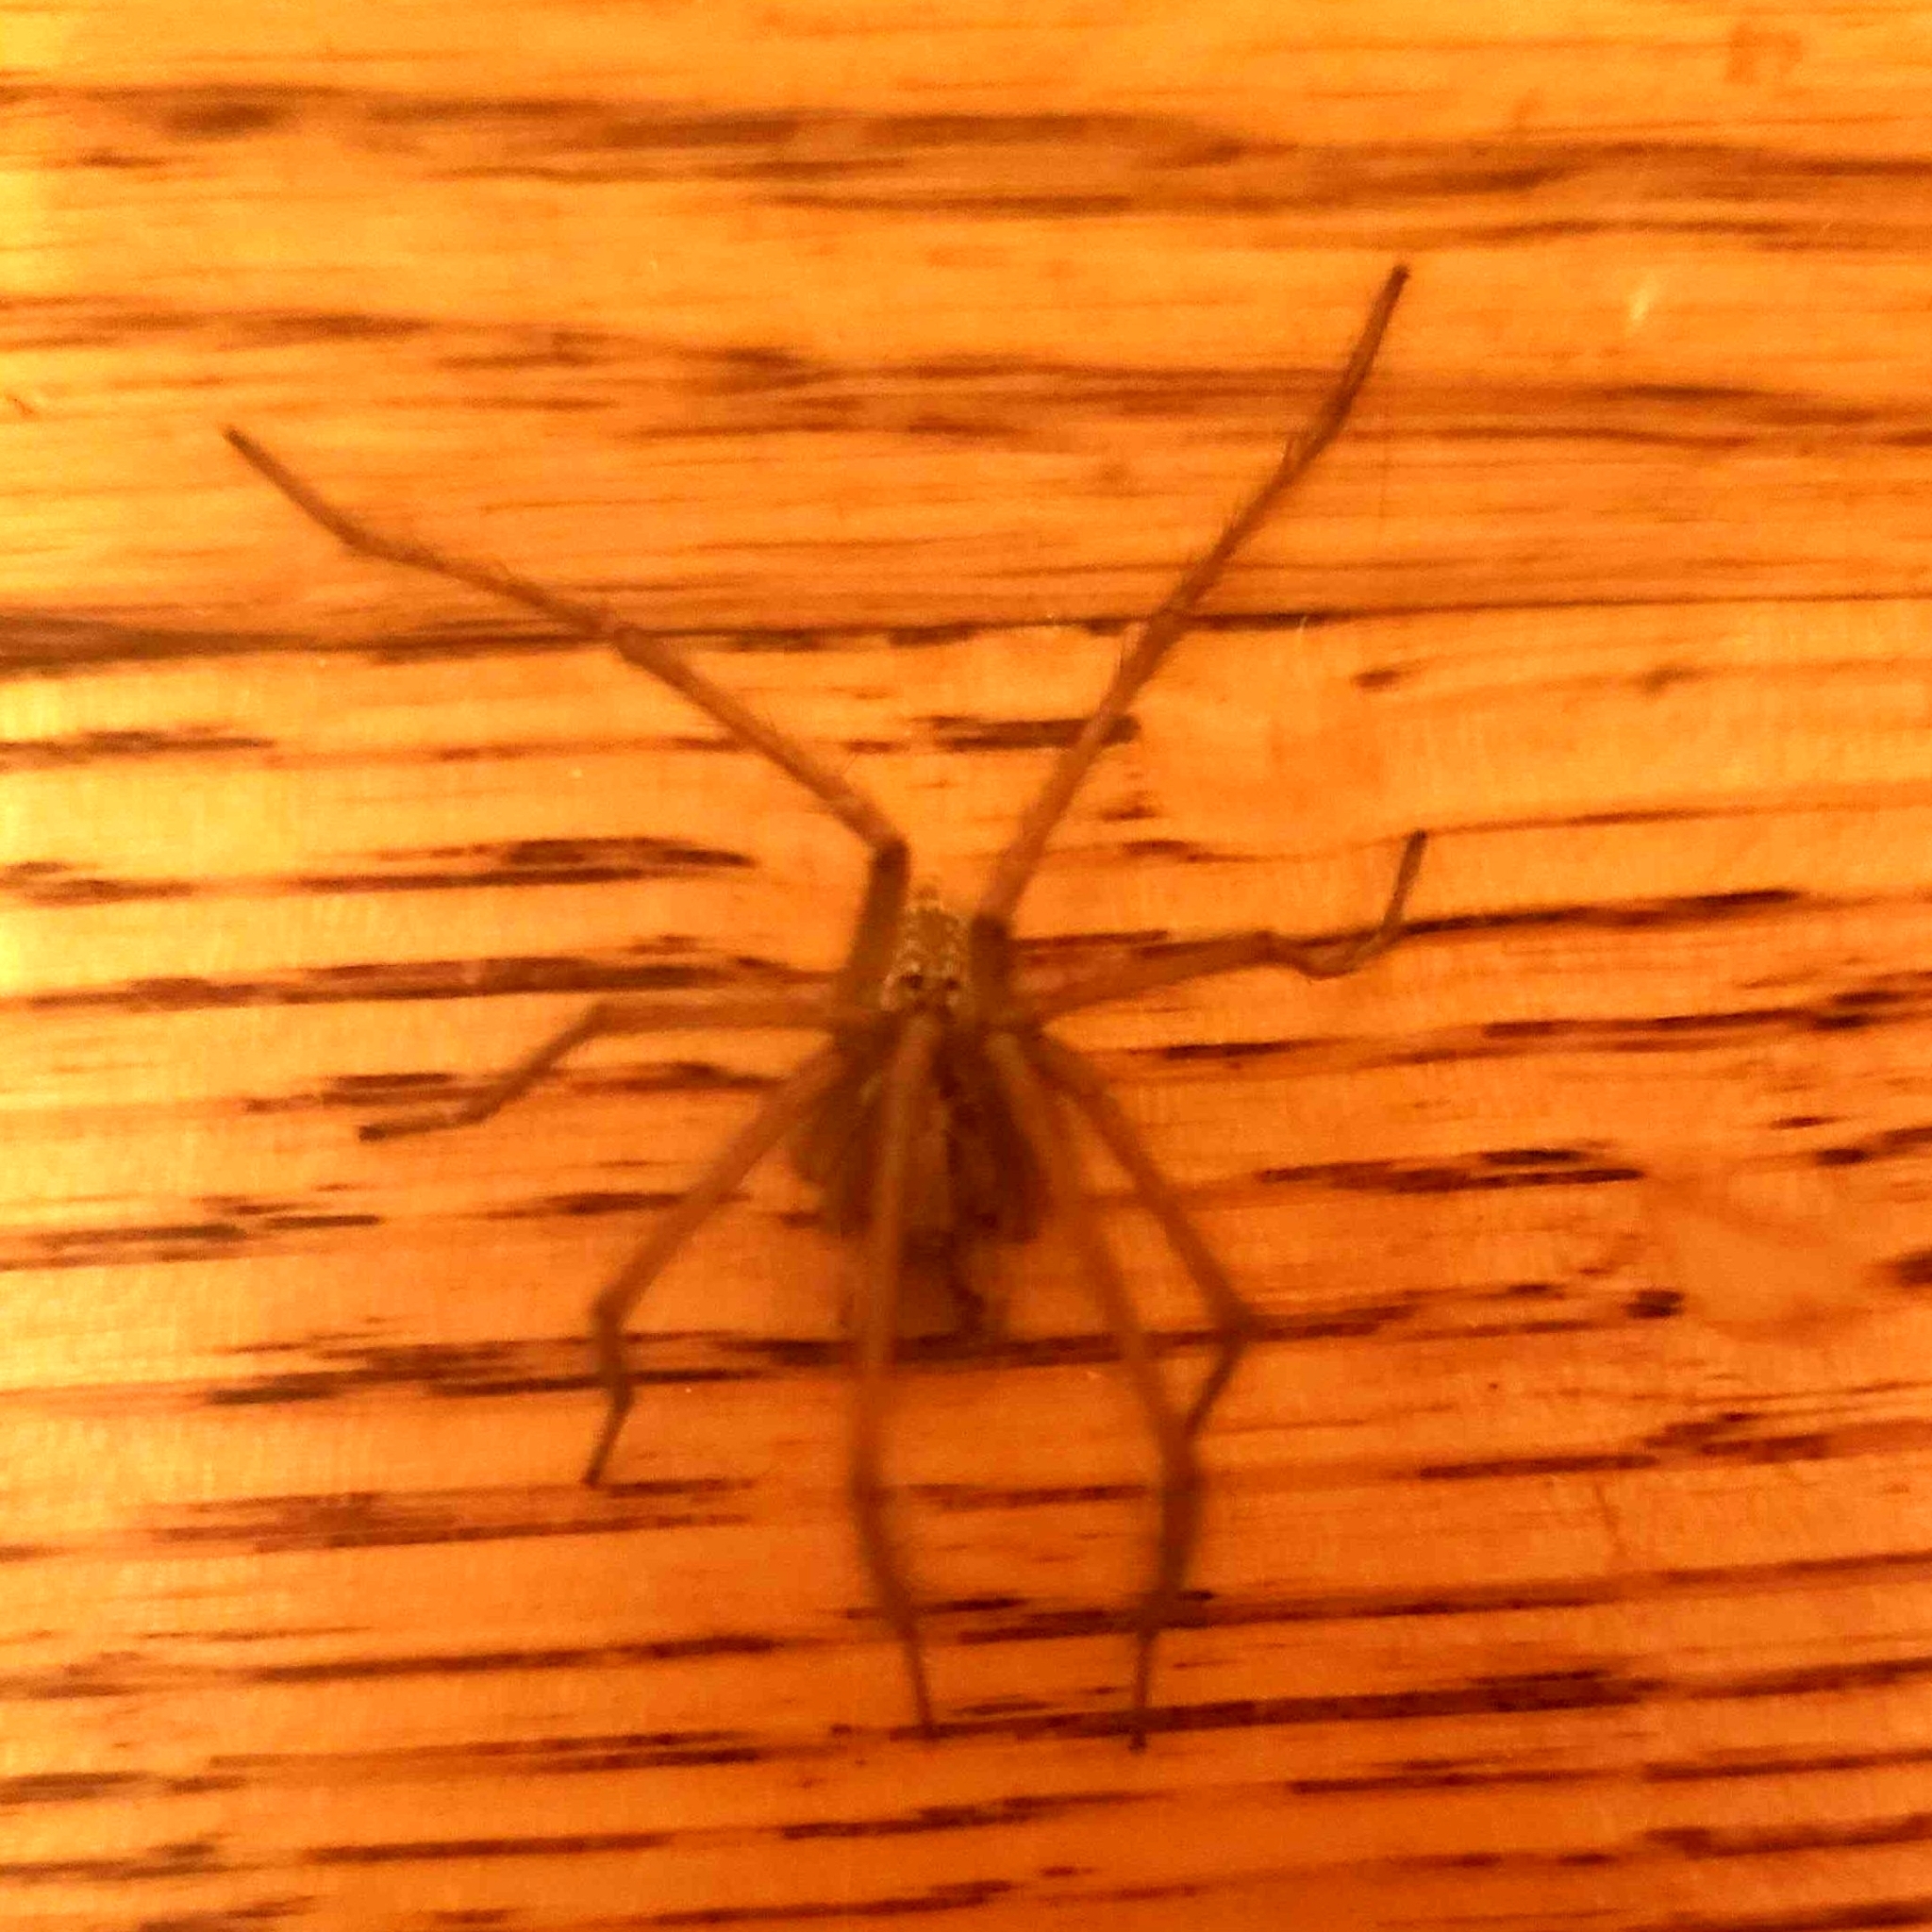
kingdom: Animalia
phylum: Arthropoda
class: Arachnida
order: Araneae
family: Agelenidae
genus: Eratigena
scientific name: Eratigena duellica
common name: Giant house spider
